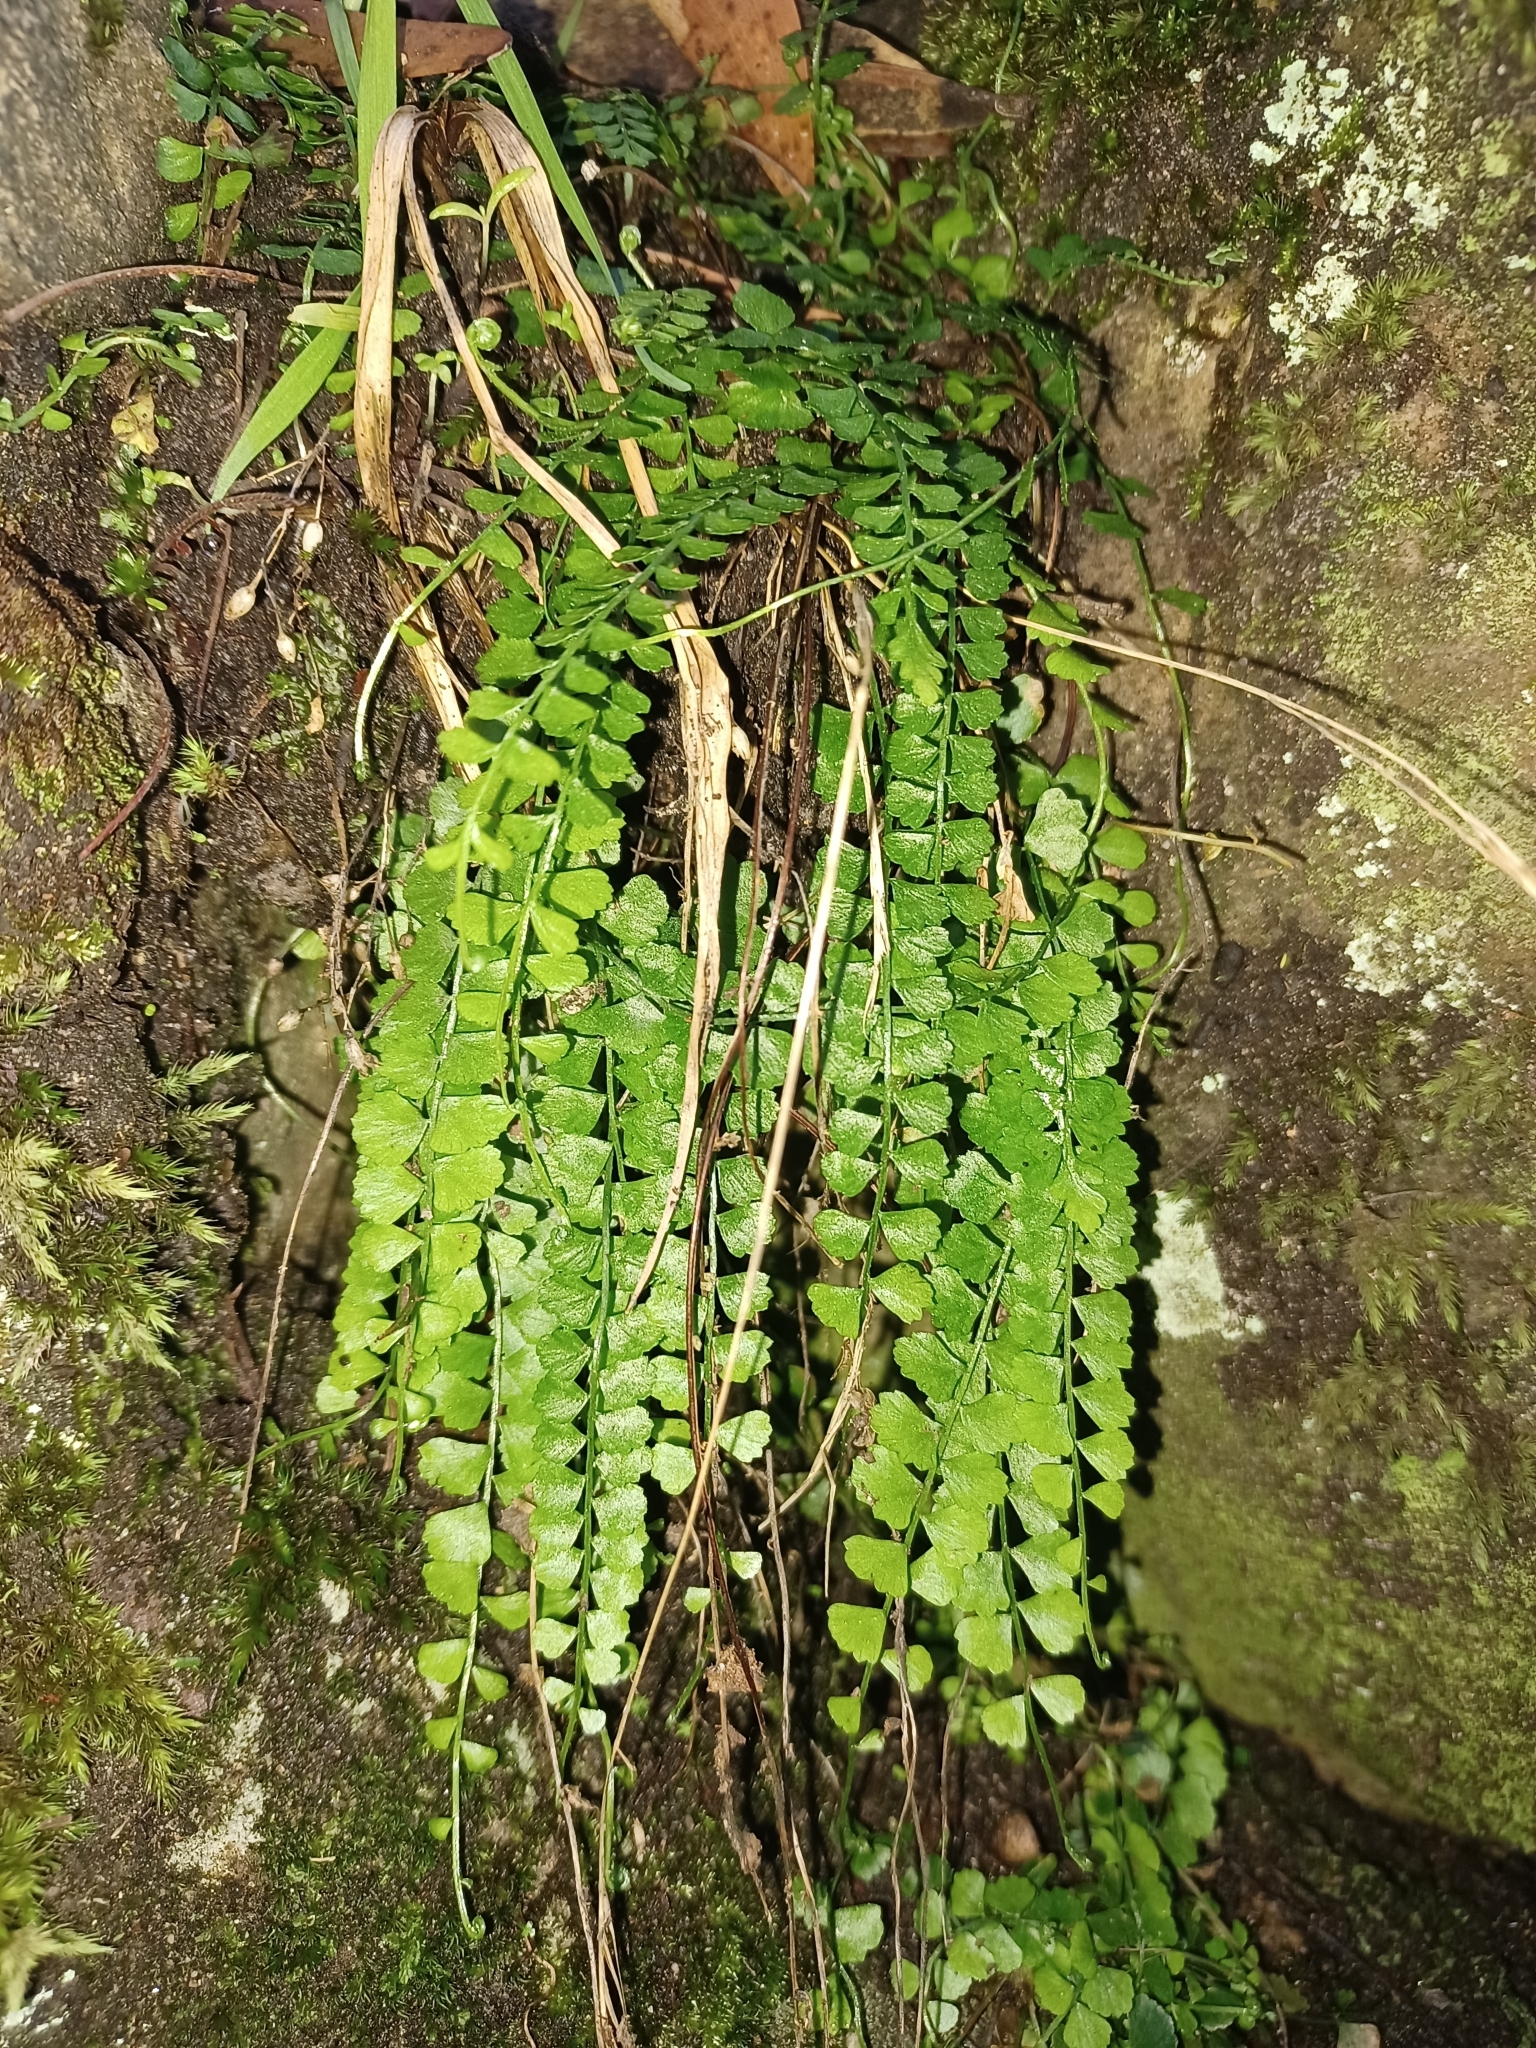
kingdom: Plantae
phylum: Tracheophyta
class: Polypodiopsida
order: Polypodiales
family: Aspleniaceae
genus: Asplenium
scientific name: Asplenium flabellifolium
